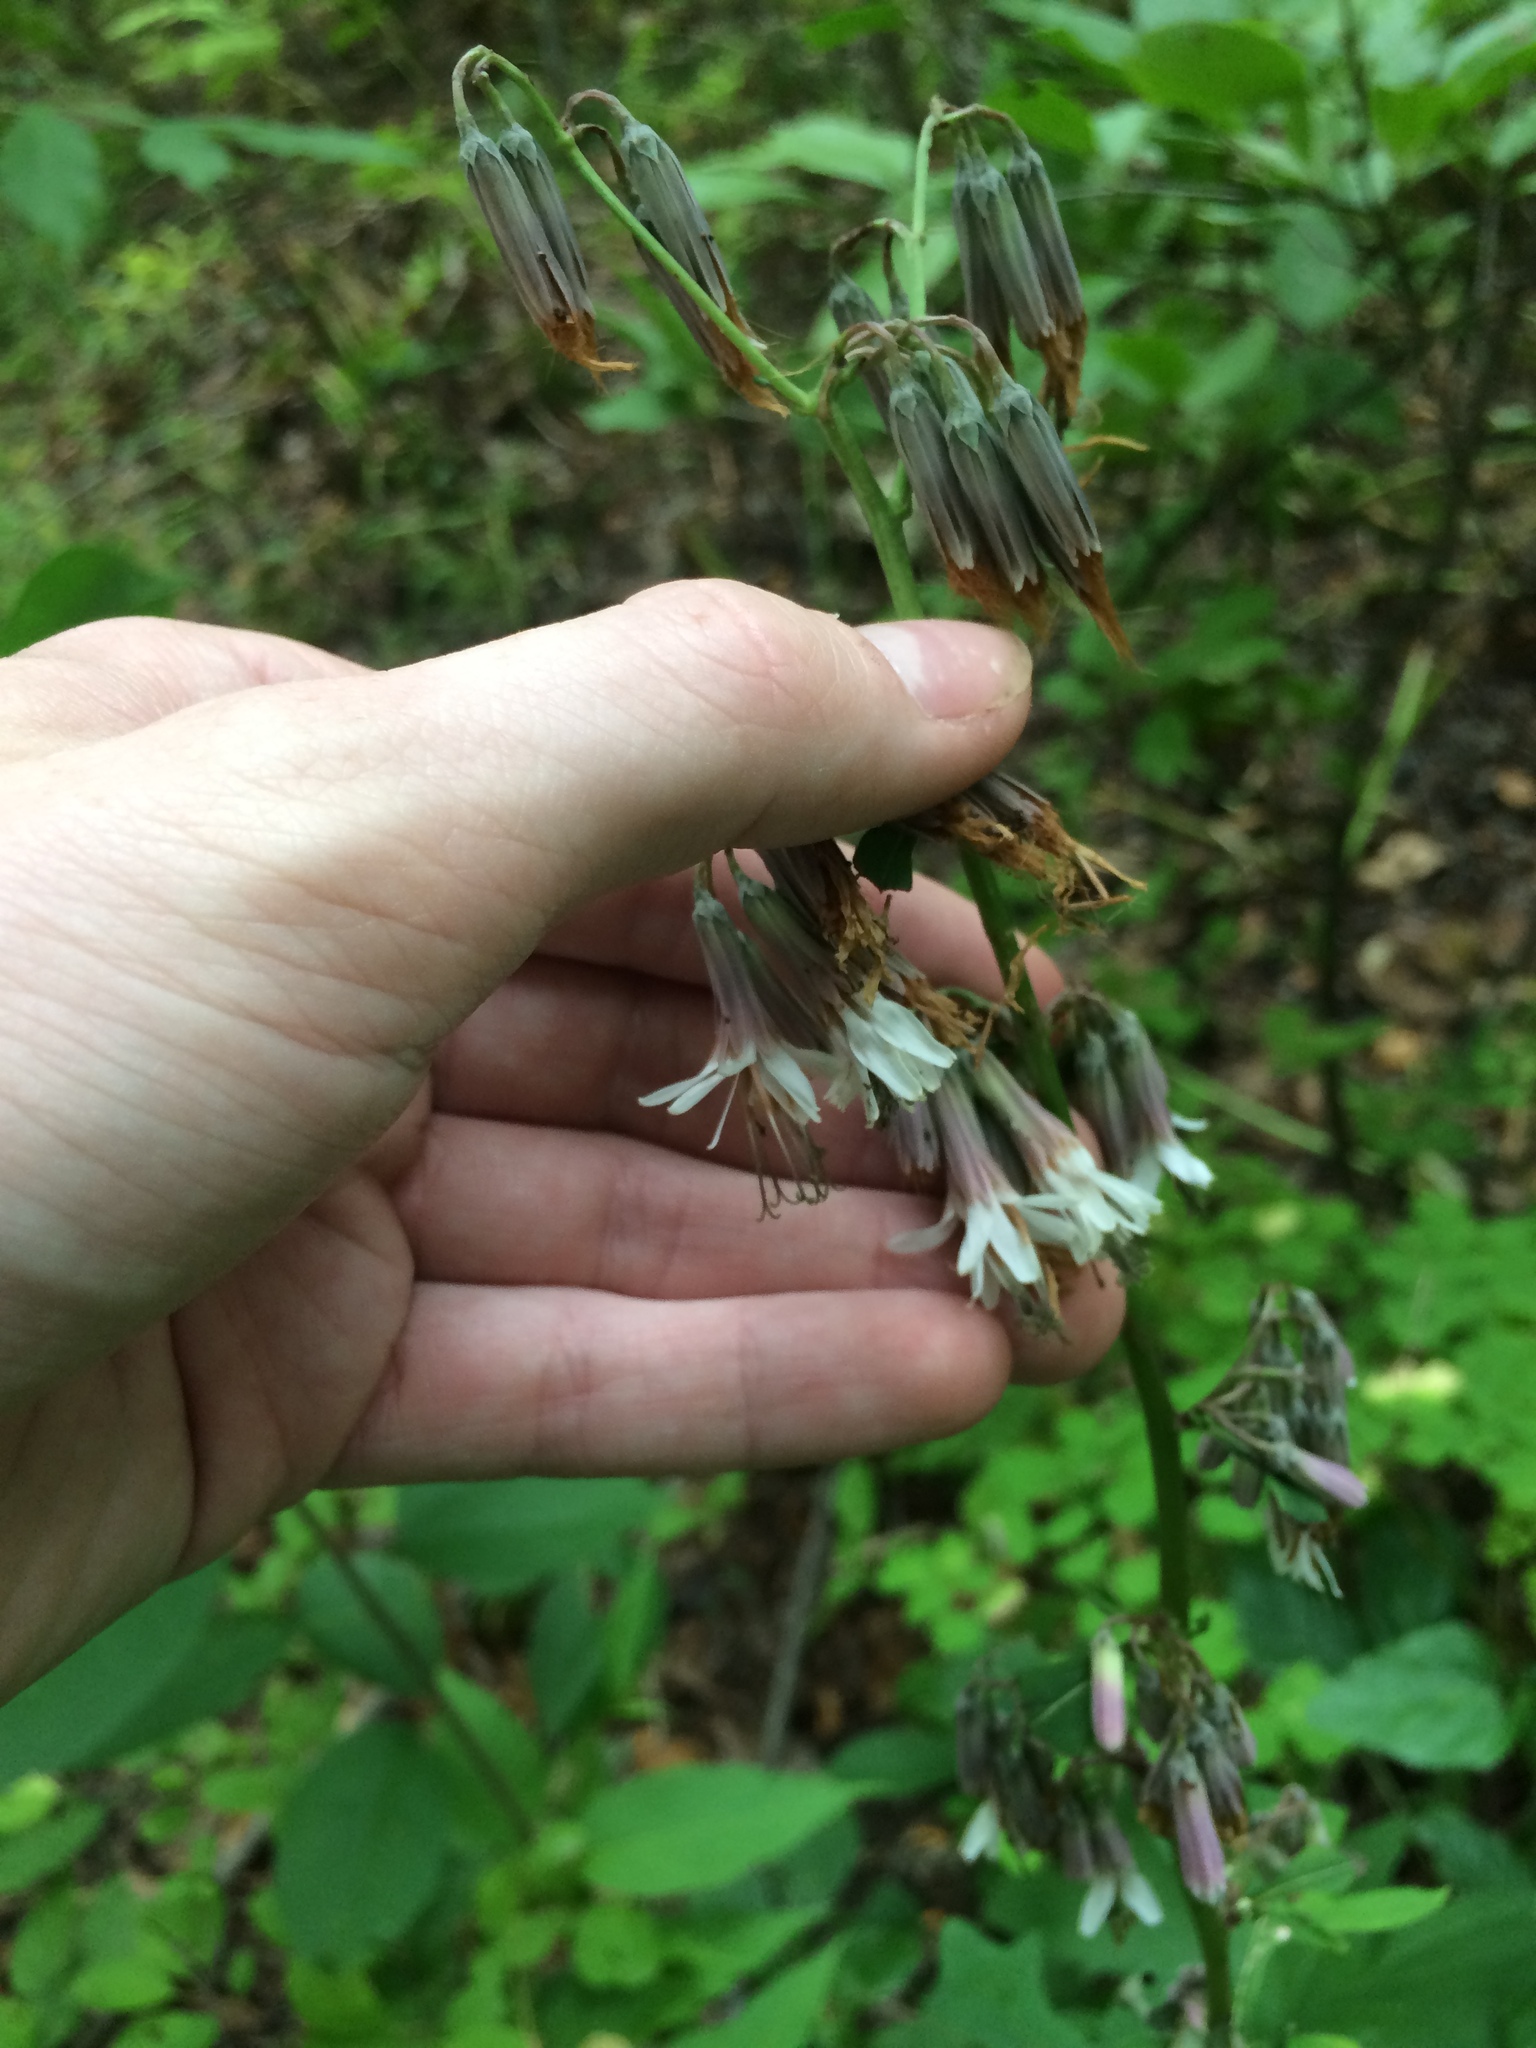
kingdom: Plantae
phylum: Tracheophyta
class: Magnoliopsida
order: Asterales
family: Asteraceae
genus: Nabalus
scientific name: Nabalus albus
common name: White rattlesnakeroot
